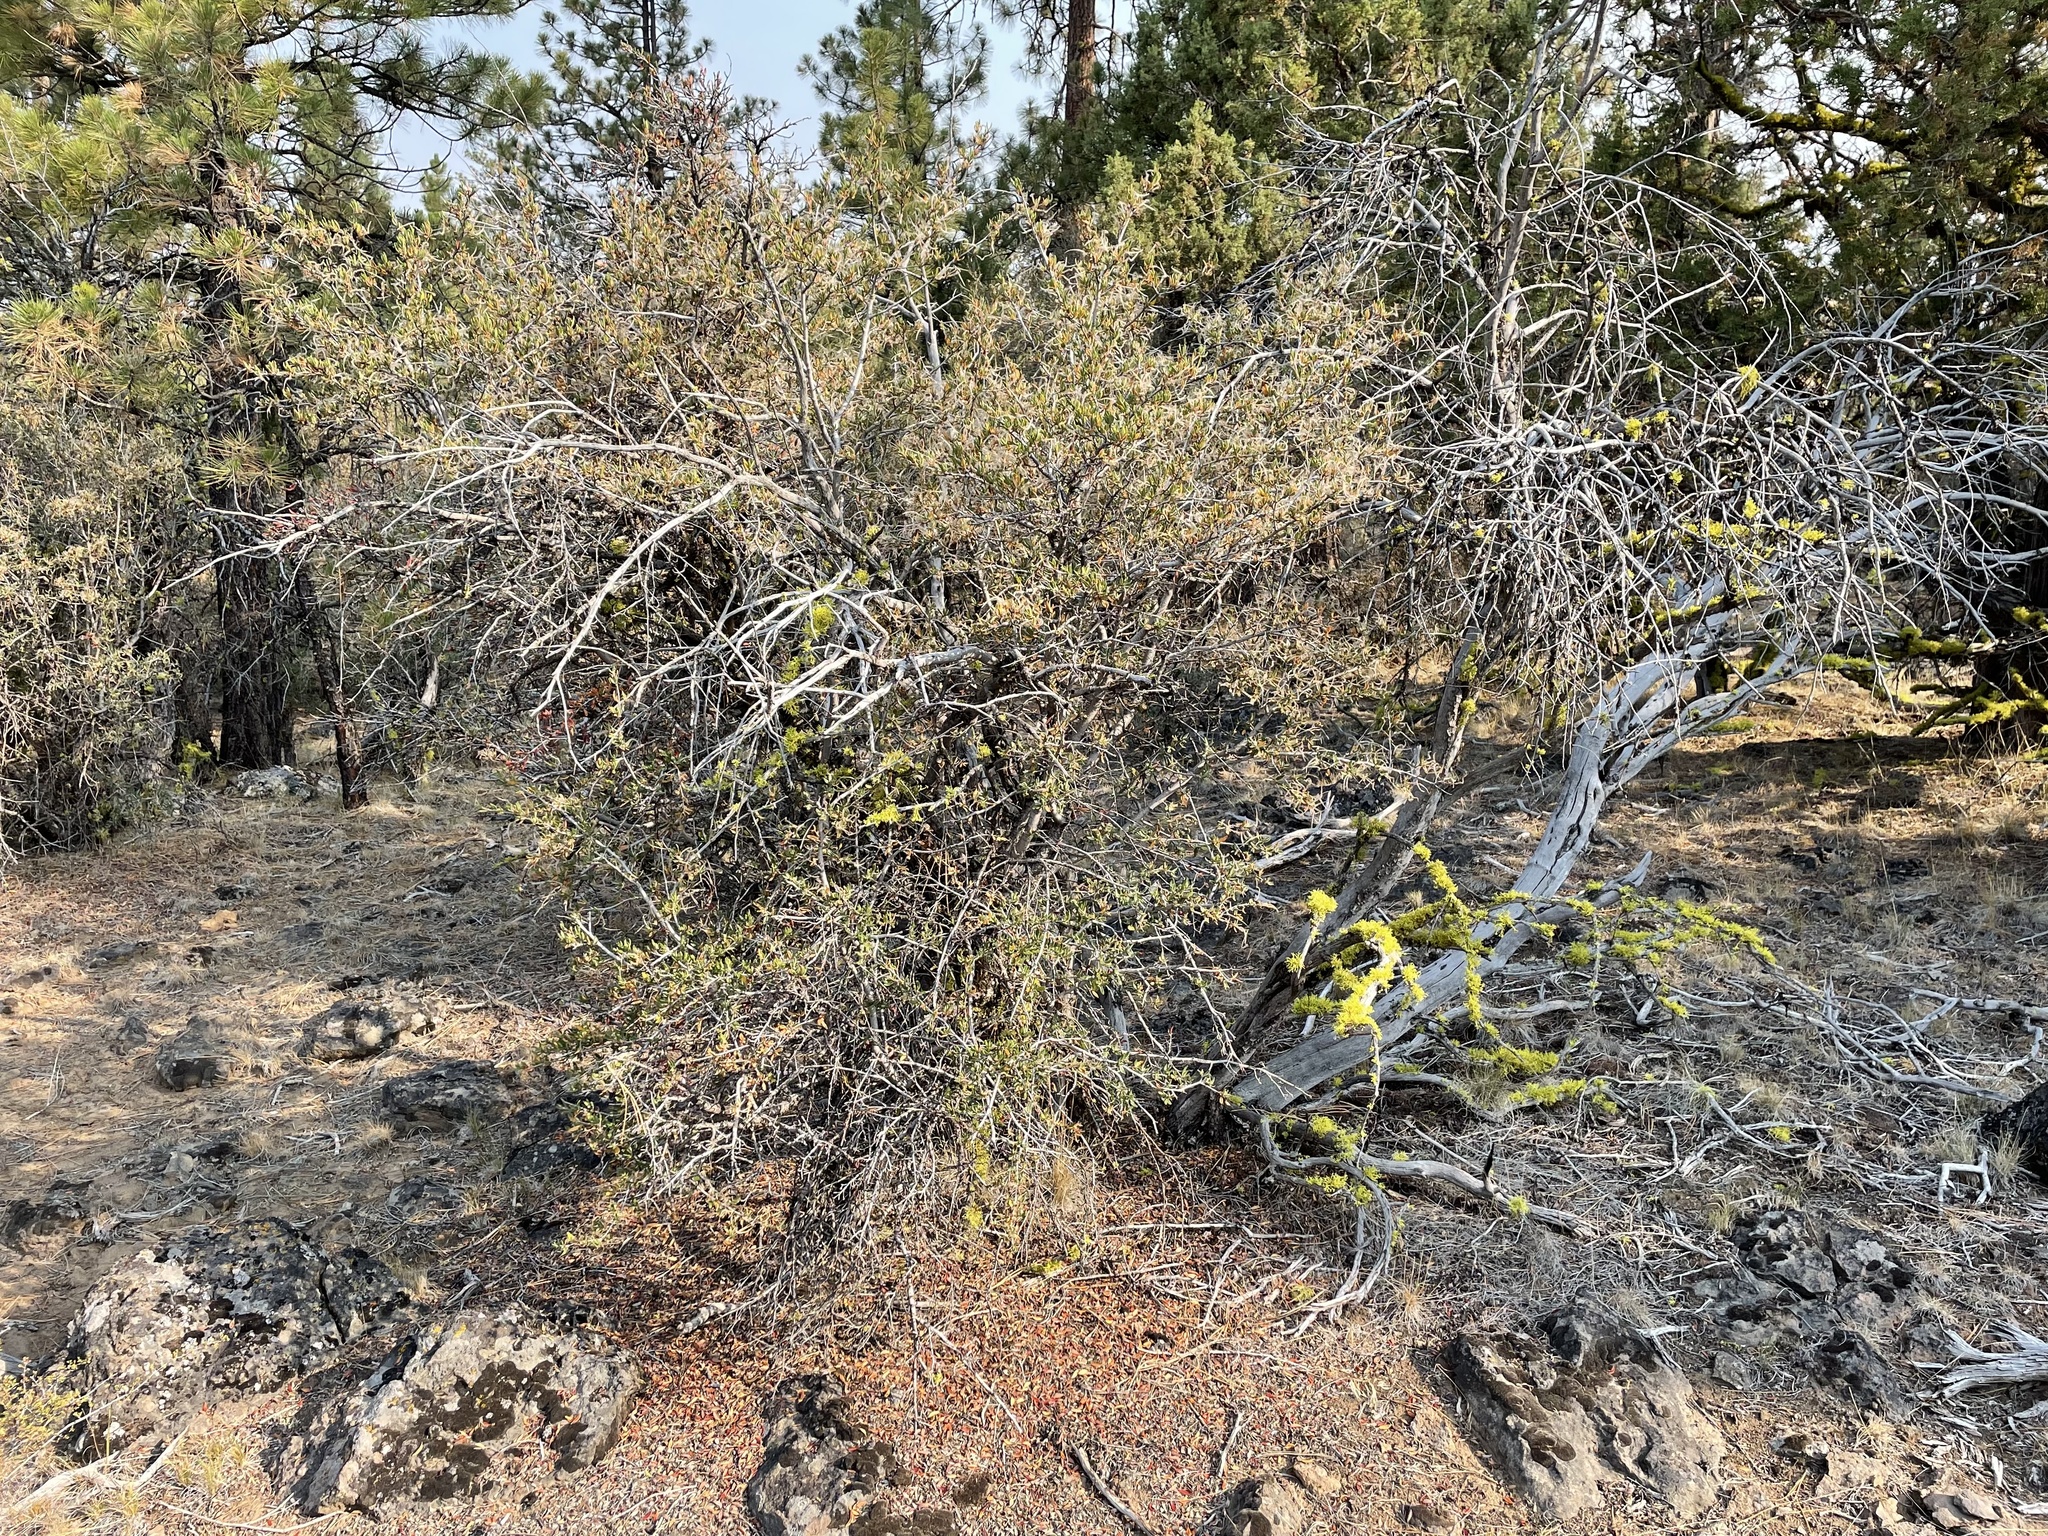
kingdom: Plantae
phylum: Tracheophyta
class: Magnoliopsida
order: Rosales
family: Rosaceae
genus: Cercocarpus
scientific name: Cercocarpus ledifolius
